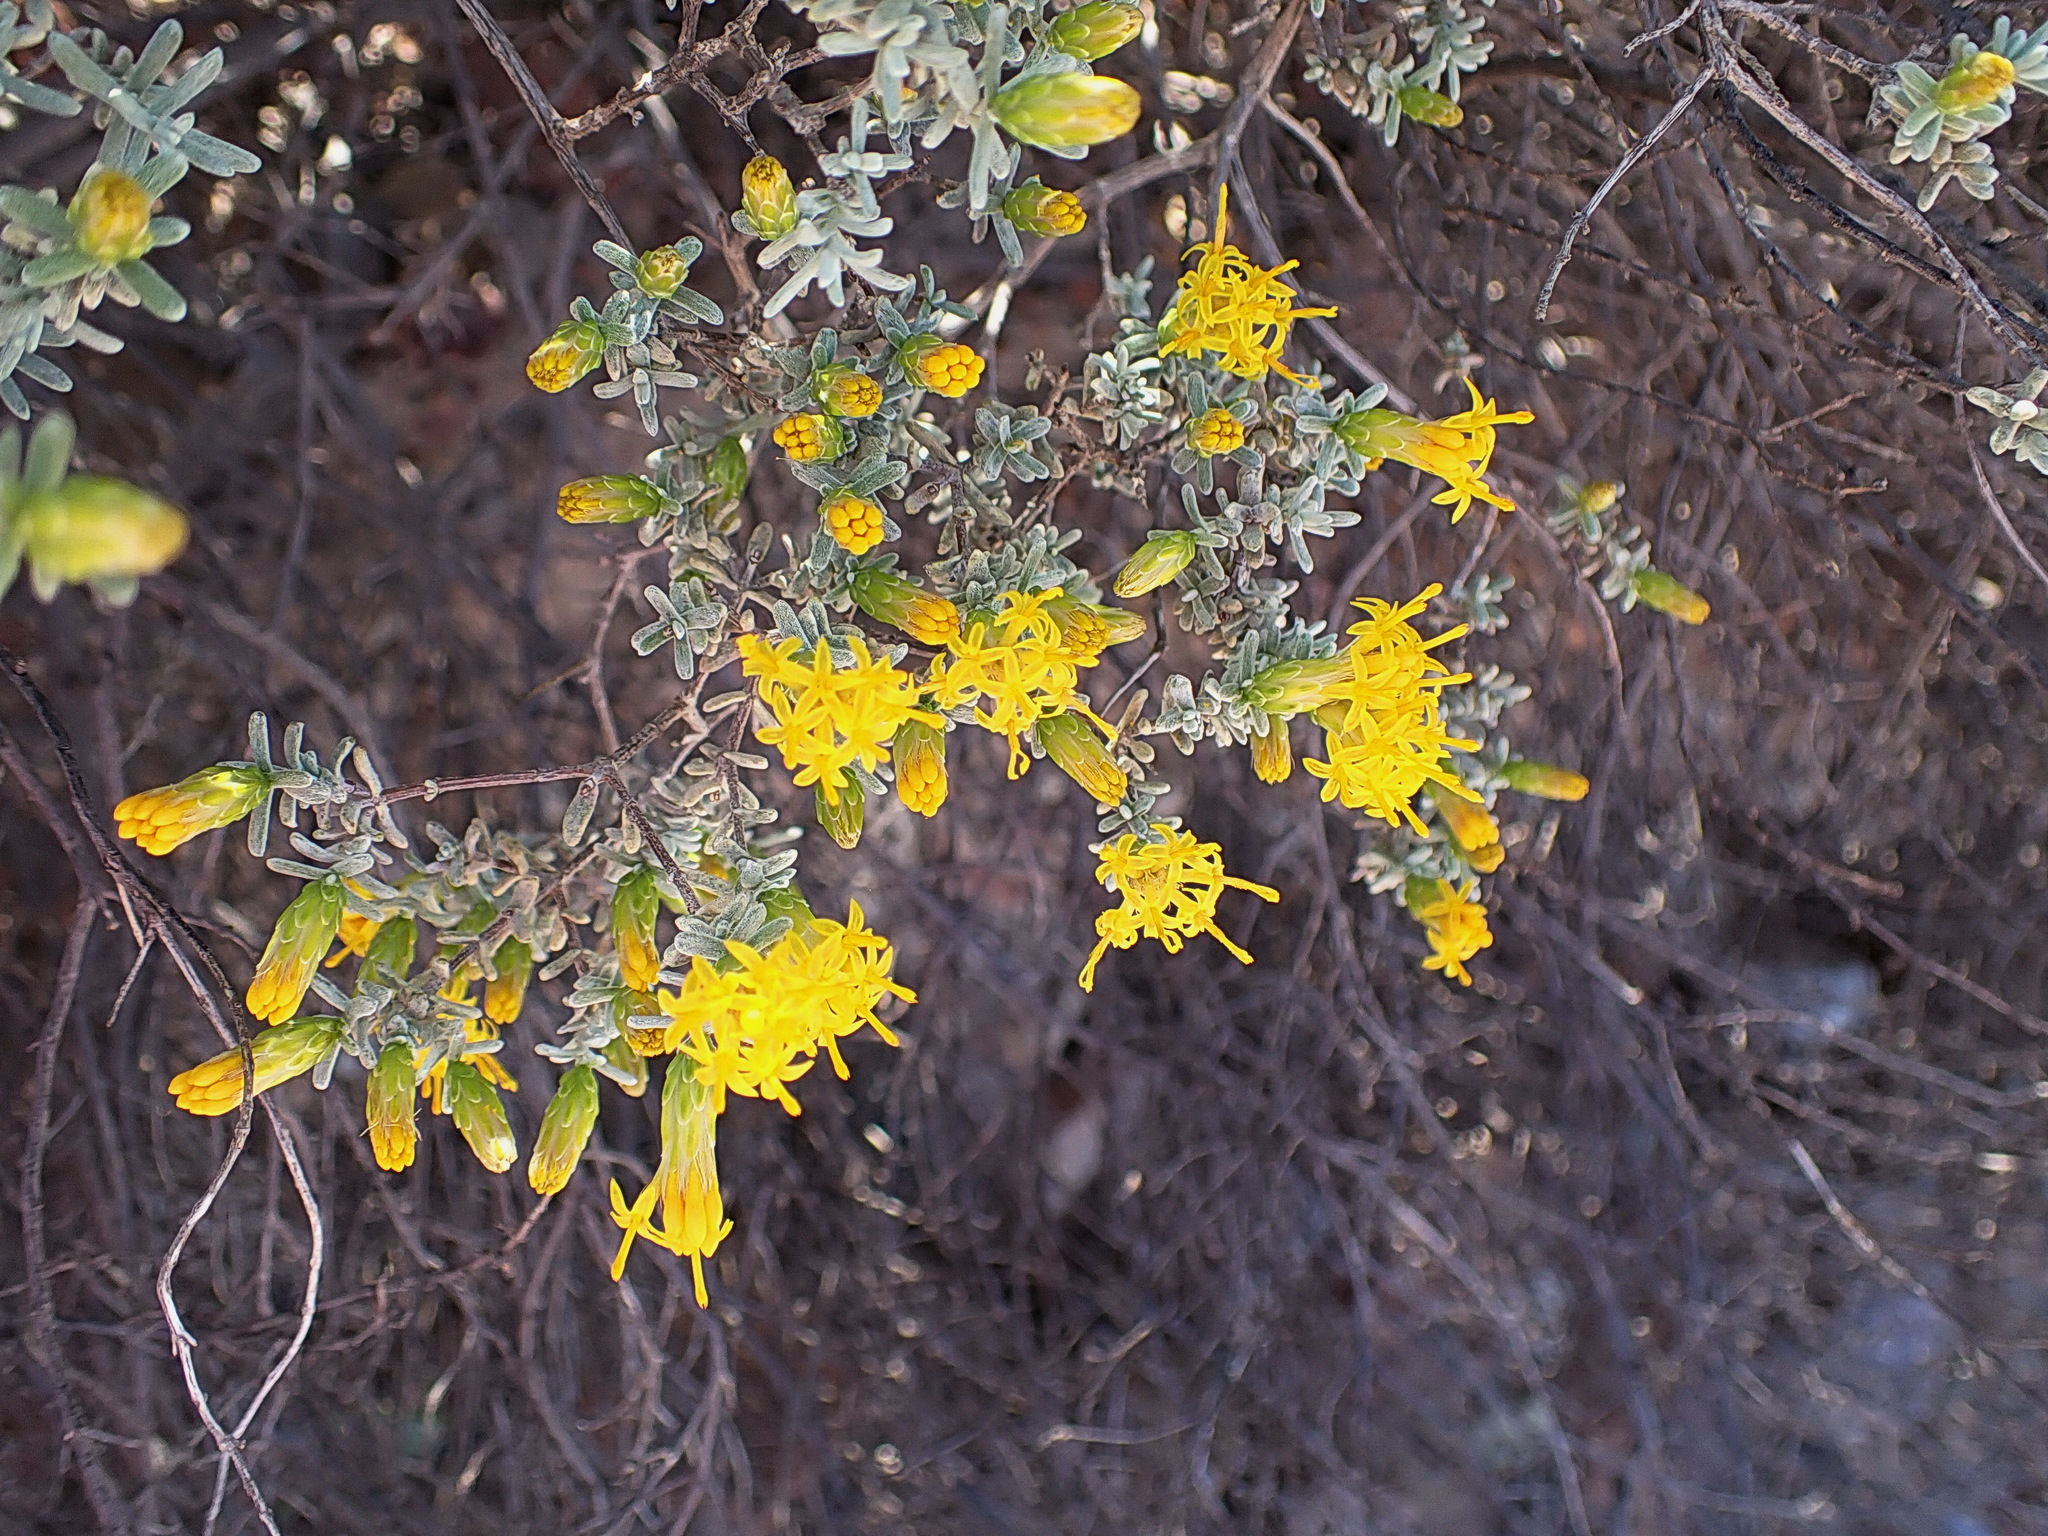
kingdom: Plantae
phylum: Tracheophyta
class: Magnoliopsida
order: Asterales
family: Asteraceae
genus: Pteronia
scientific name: Pteronia incana
